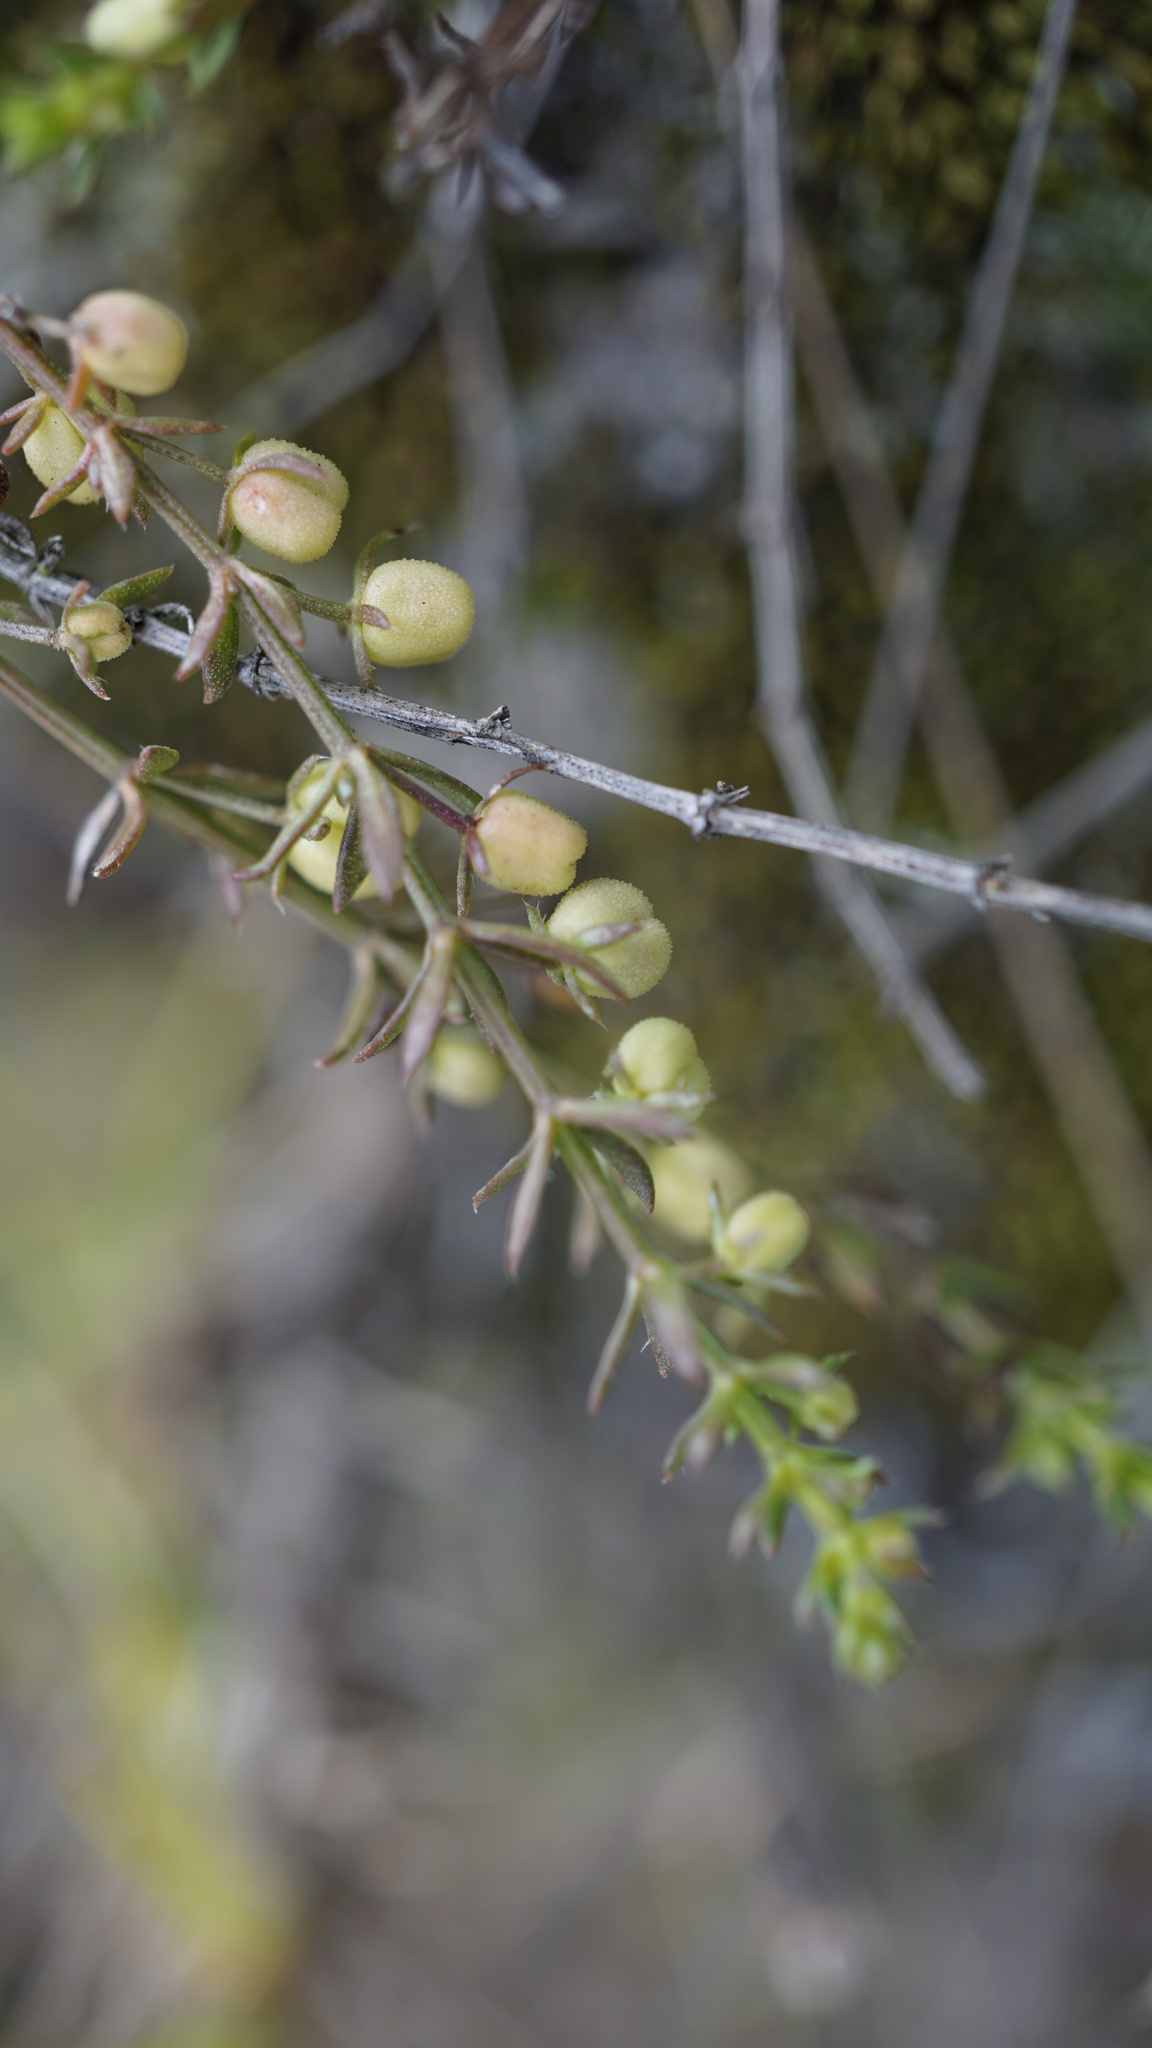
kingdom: Plantae
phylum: Tracheophyta
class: Magnoliopsida
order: Gentianales
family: Rubiaceae
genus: Galium
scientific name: Galium corymbosum
